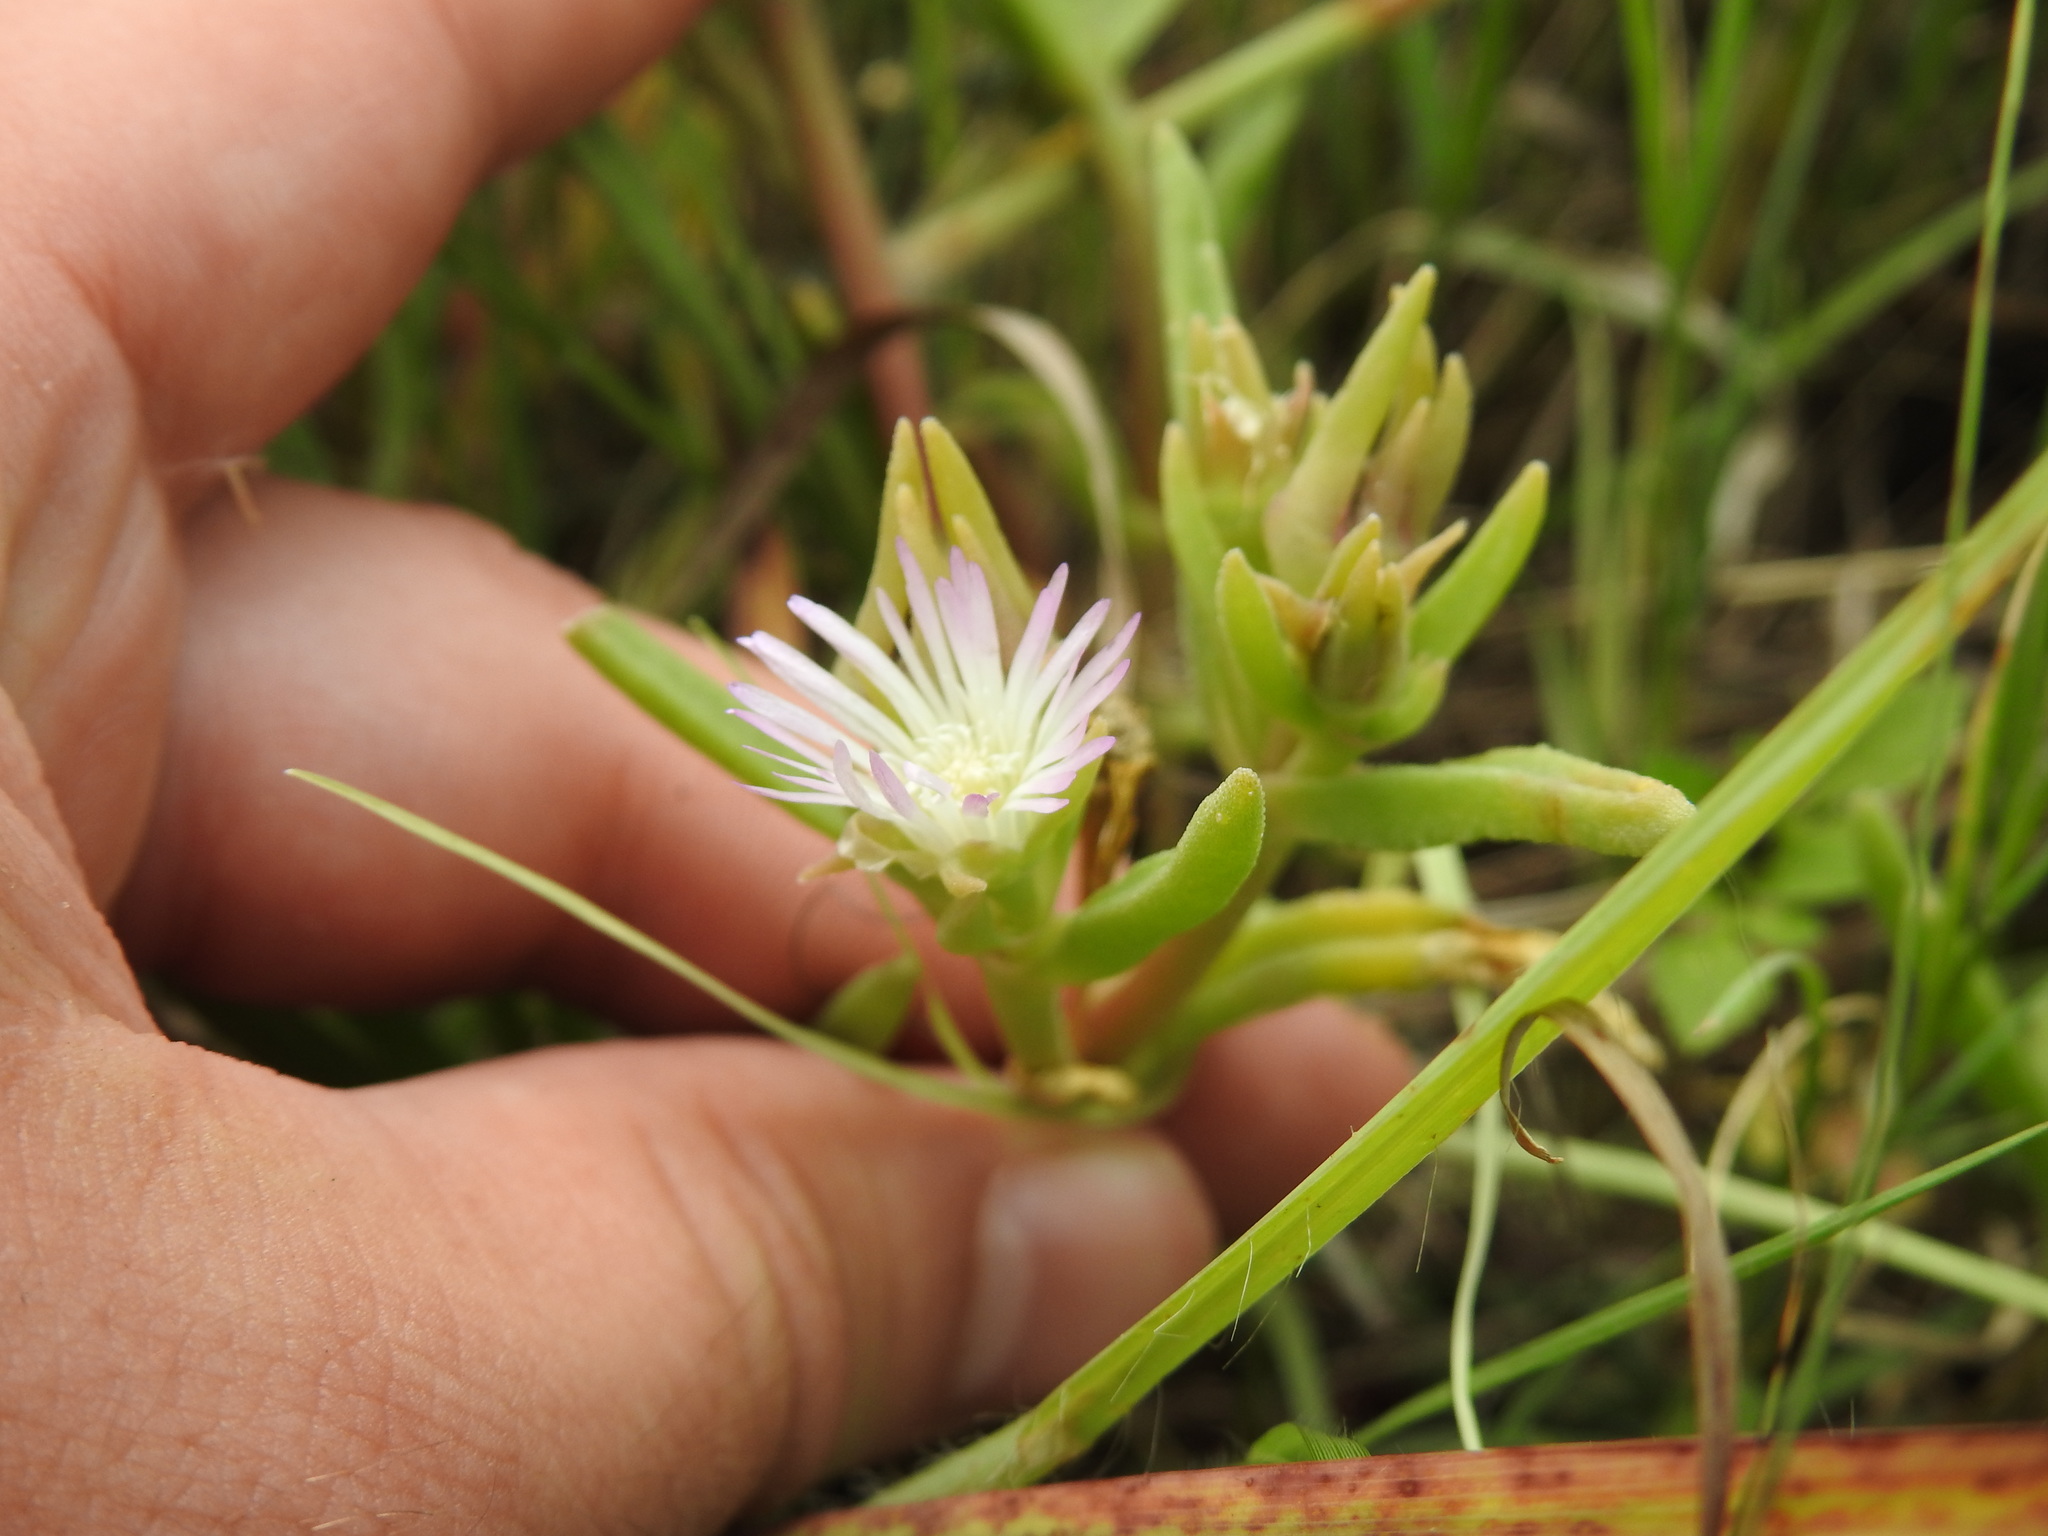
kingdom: Plantae
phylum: Tracheophyta
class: Magnoliopsida
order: Caryophyllales
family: Aizoaceae
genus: Delosperma
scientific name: Delosperma herbeum
